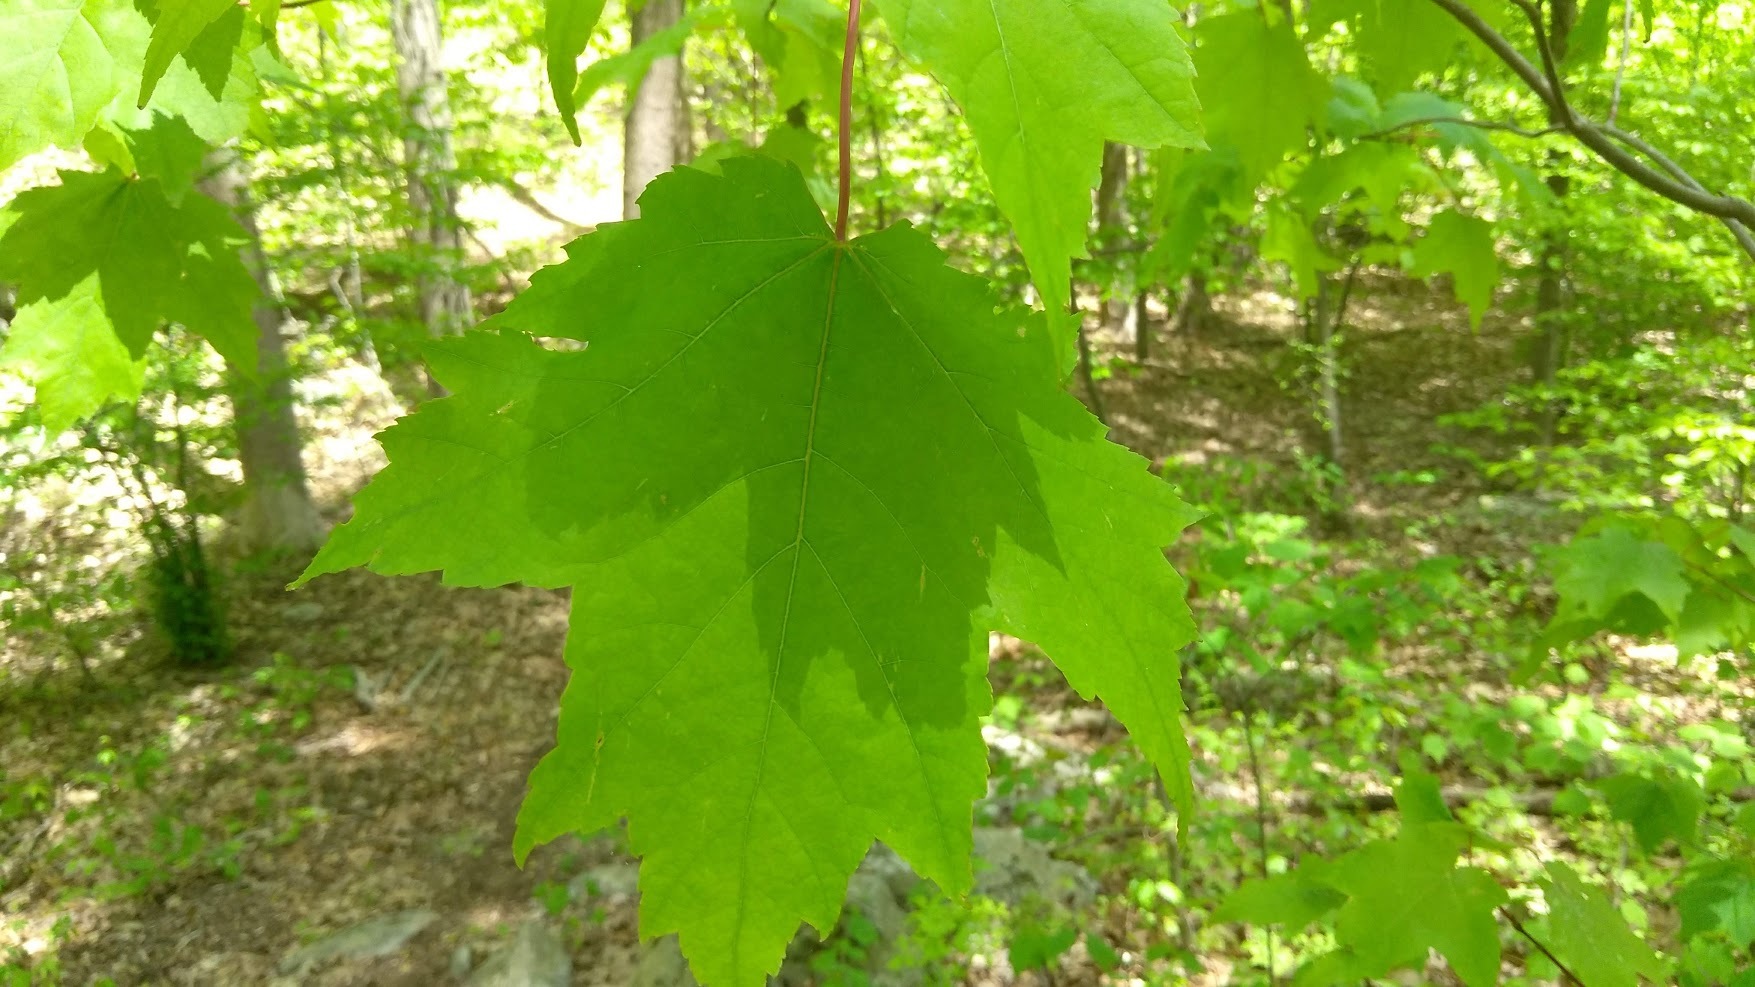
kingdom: Plantae
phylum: Tracheophyta
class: Magnoliopsida
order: Sapindales
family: Sapindaceae
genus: Acer
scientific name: Acer rubrum
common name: Red maple
